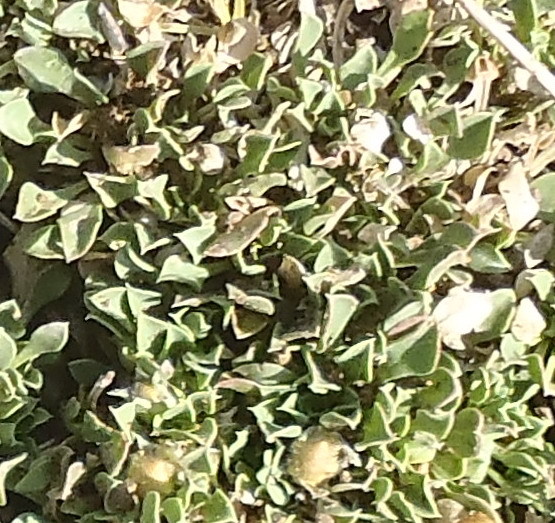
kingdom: Plantae
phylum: Tracheophyta
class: Magnoliopsida
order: Lamiales
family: Scrophulariaceae
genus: Aptosimum
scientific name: Aptosimum procumbens
